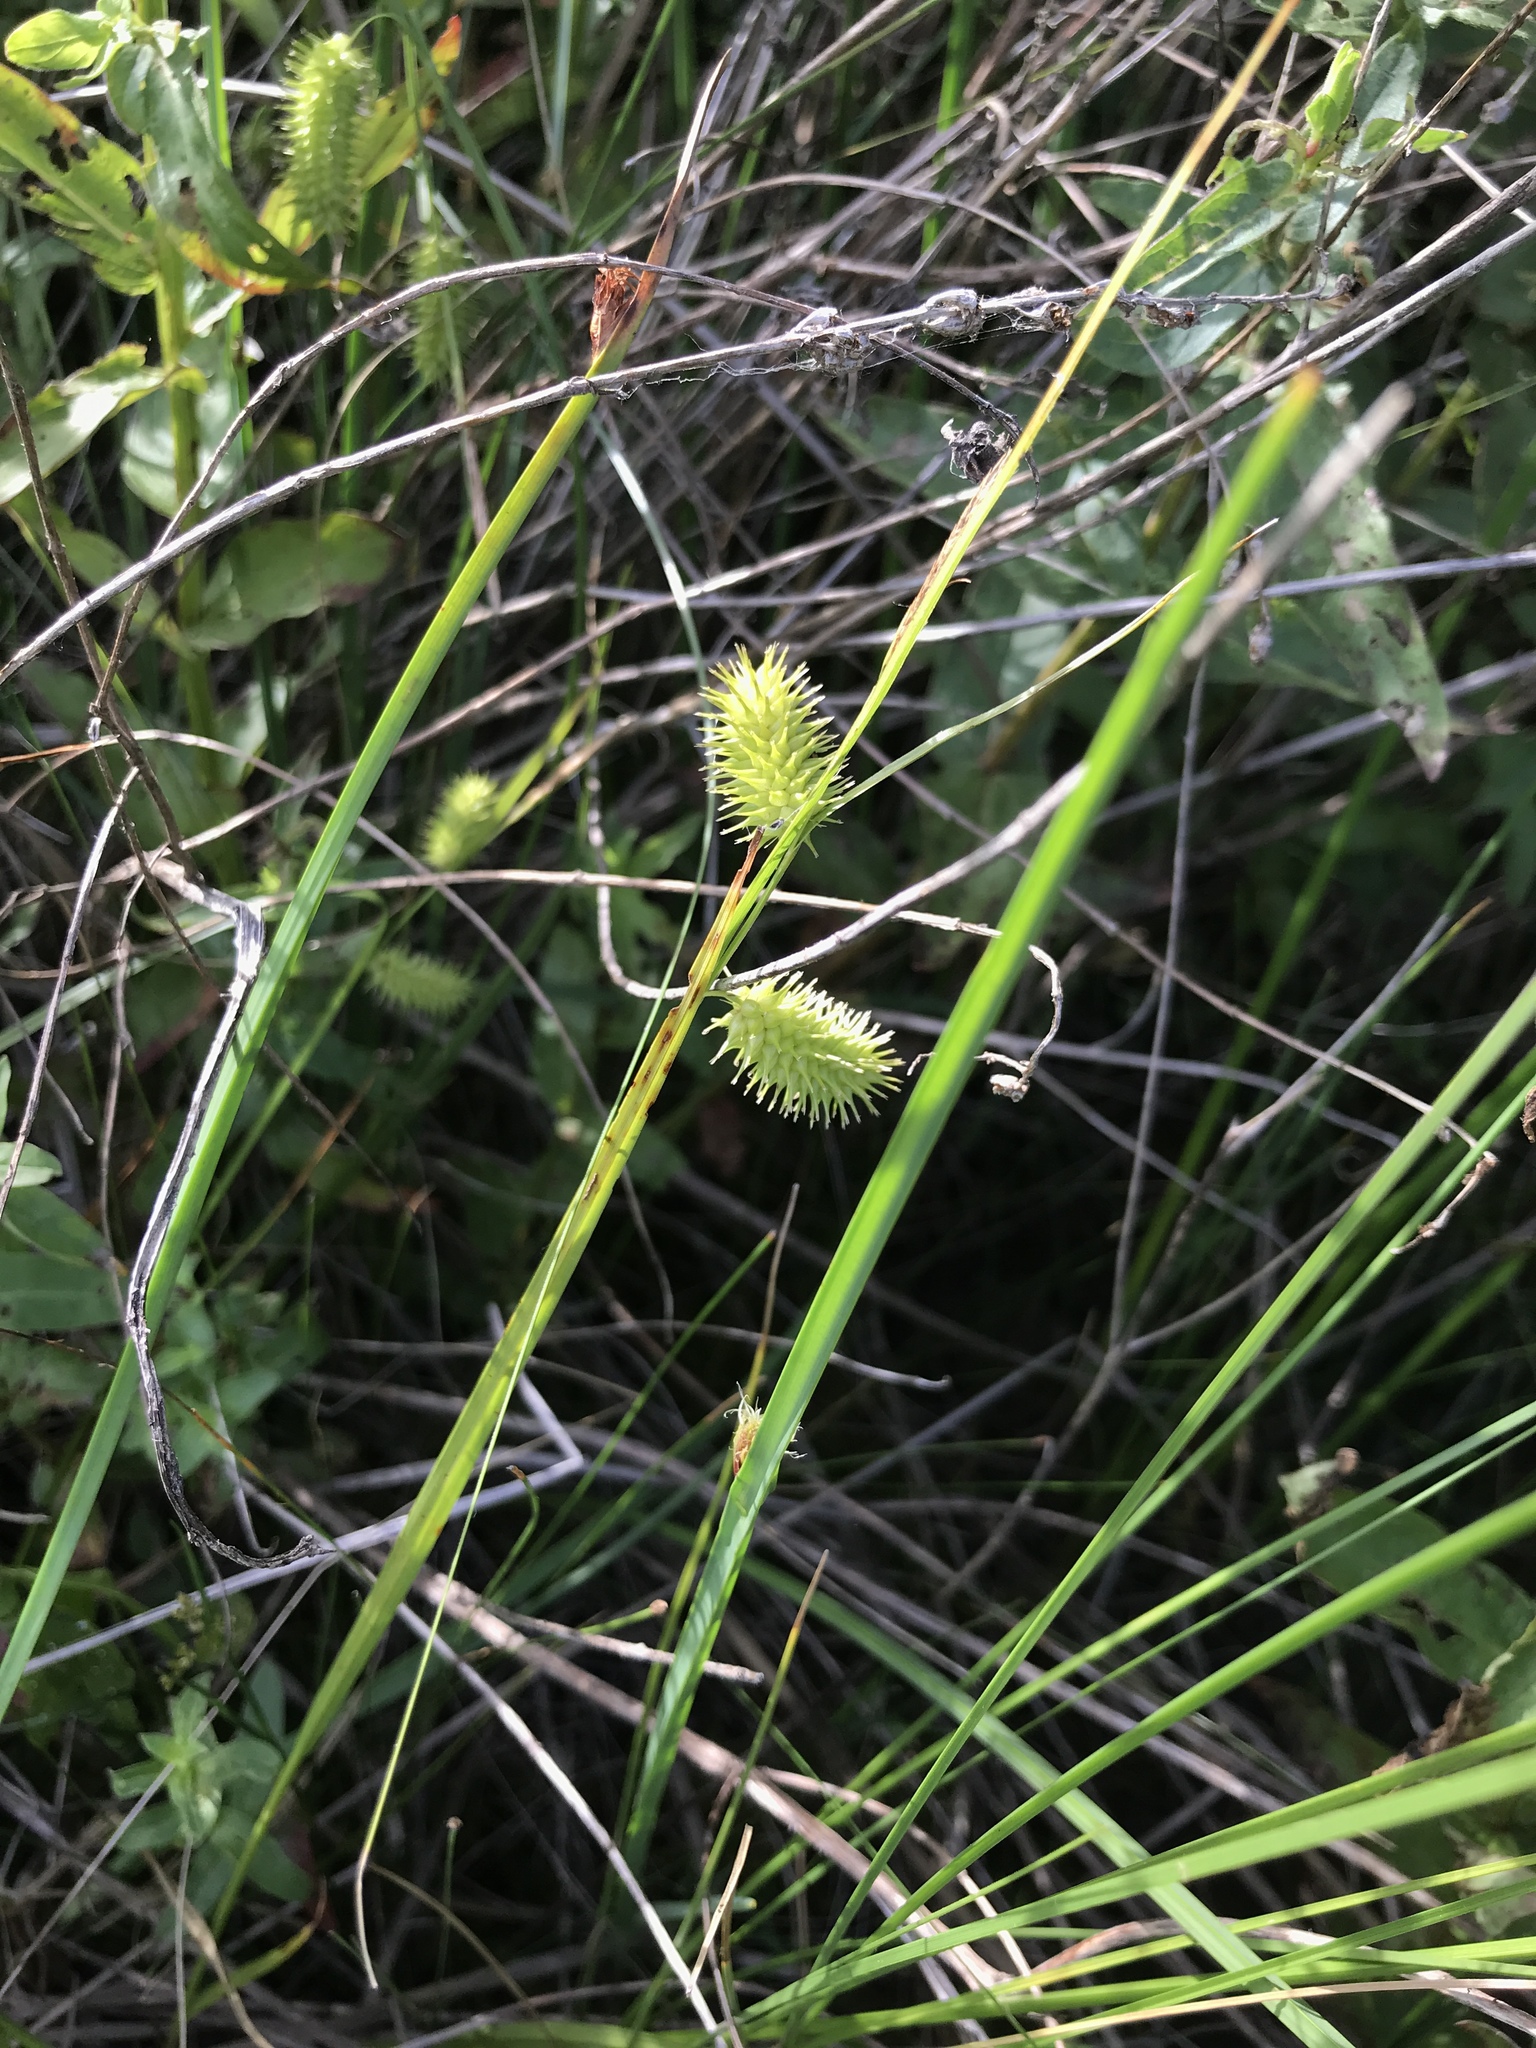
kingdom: Plantae
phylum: Tracheophyta
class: Liliopsida
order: Poales
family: Cyperaceae
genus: Carex
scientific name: Carex hystericina
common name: Bottlebrush sedge
